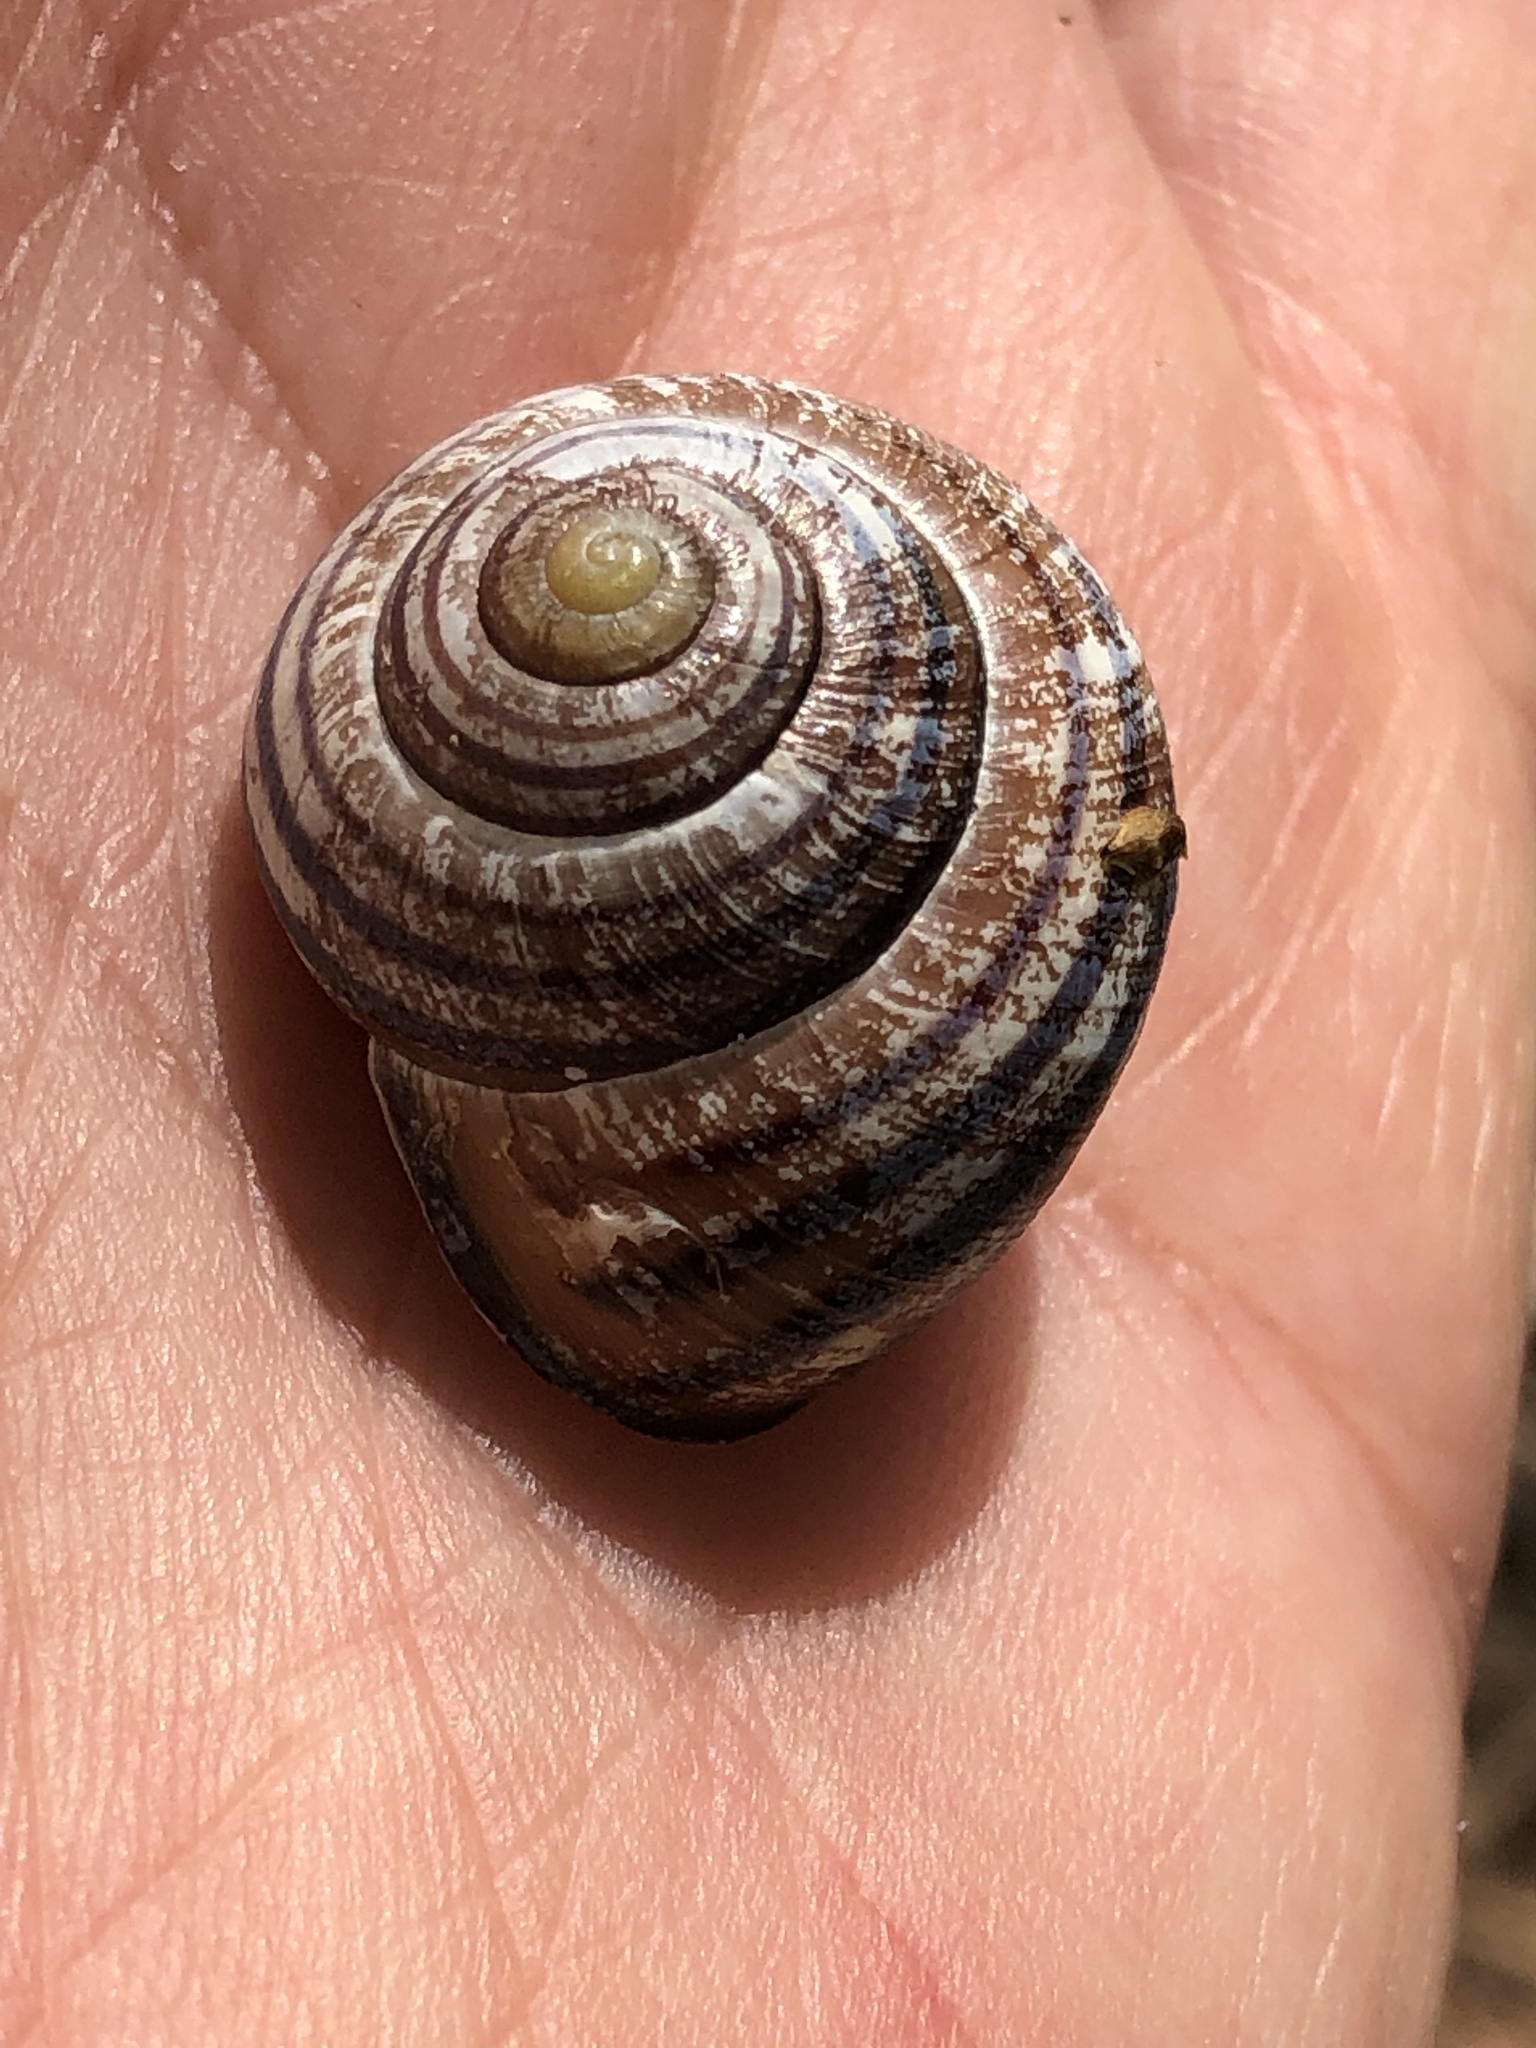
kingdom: Animalia
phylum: Mollusca
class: Gastropoda
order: Stylommatophora
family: Helicidae
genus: Cepaea
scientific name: Cepaea nemoralis
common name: Grovesnail
